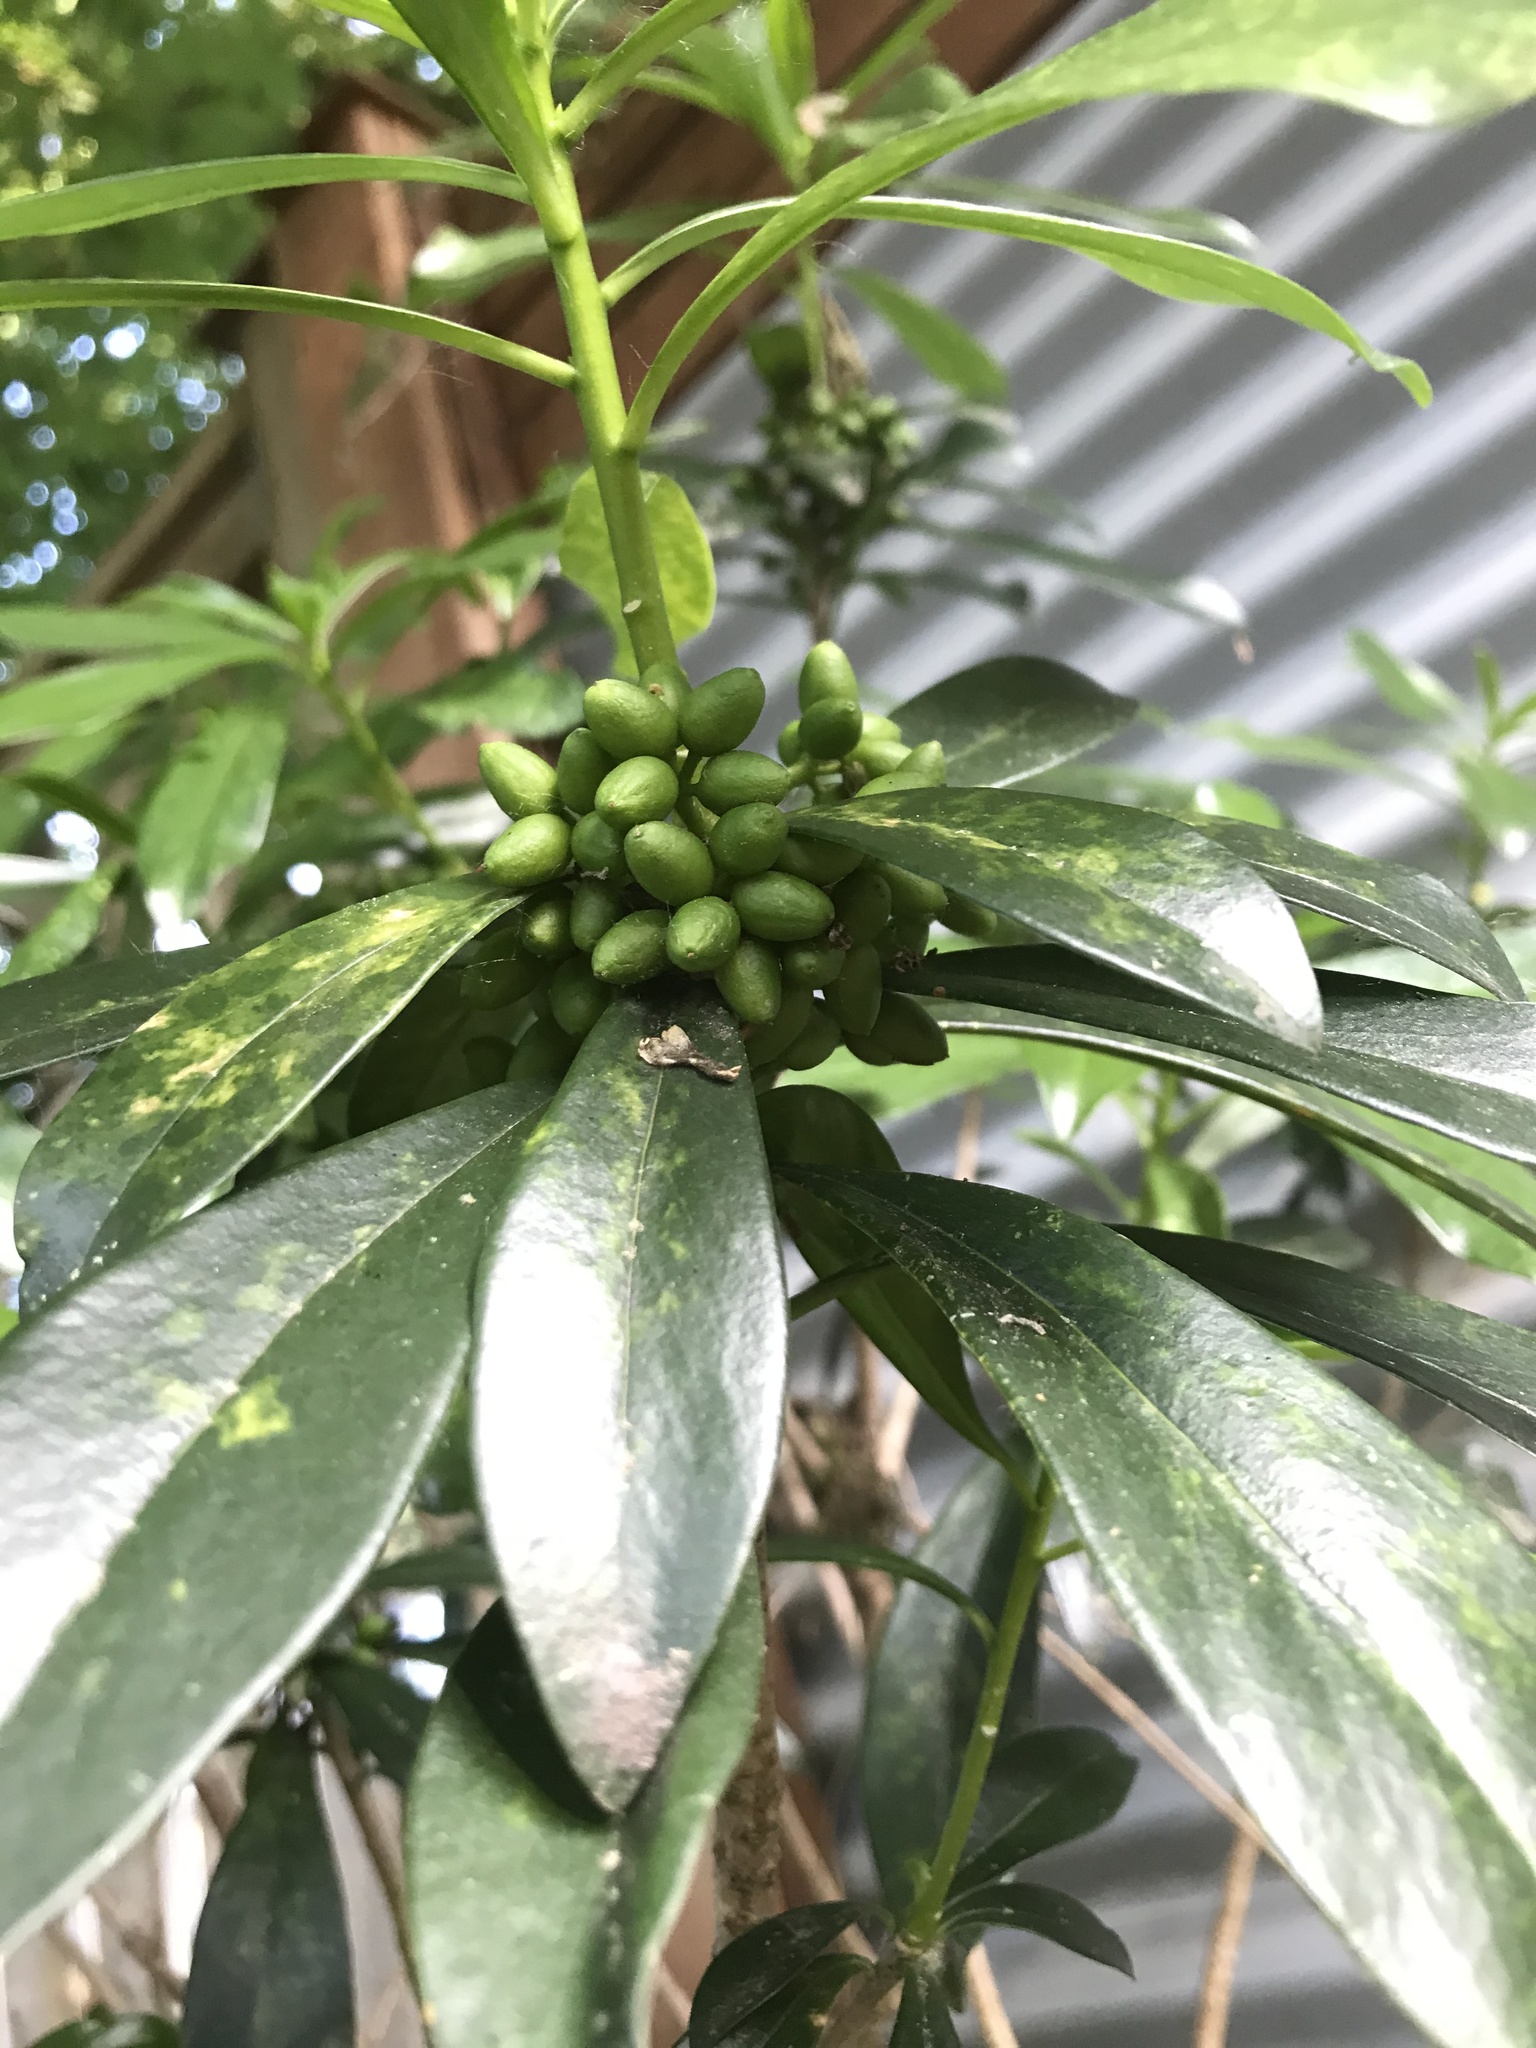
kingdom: Plantae
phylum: Tracheophyta
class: Magnoliopsida
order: Malvales
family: Thymelaeaceae
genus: Daphne
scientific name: Daphne laureola
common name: Spurge-laurel
